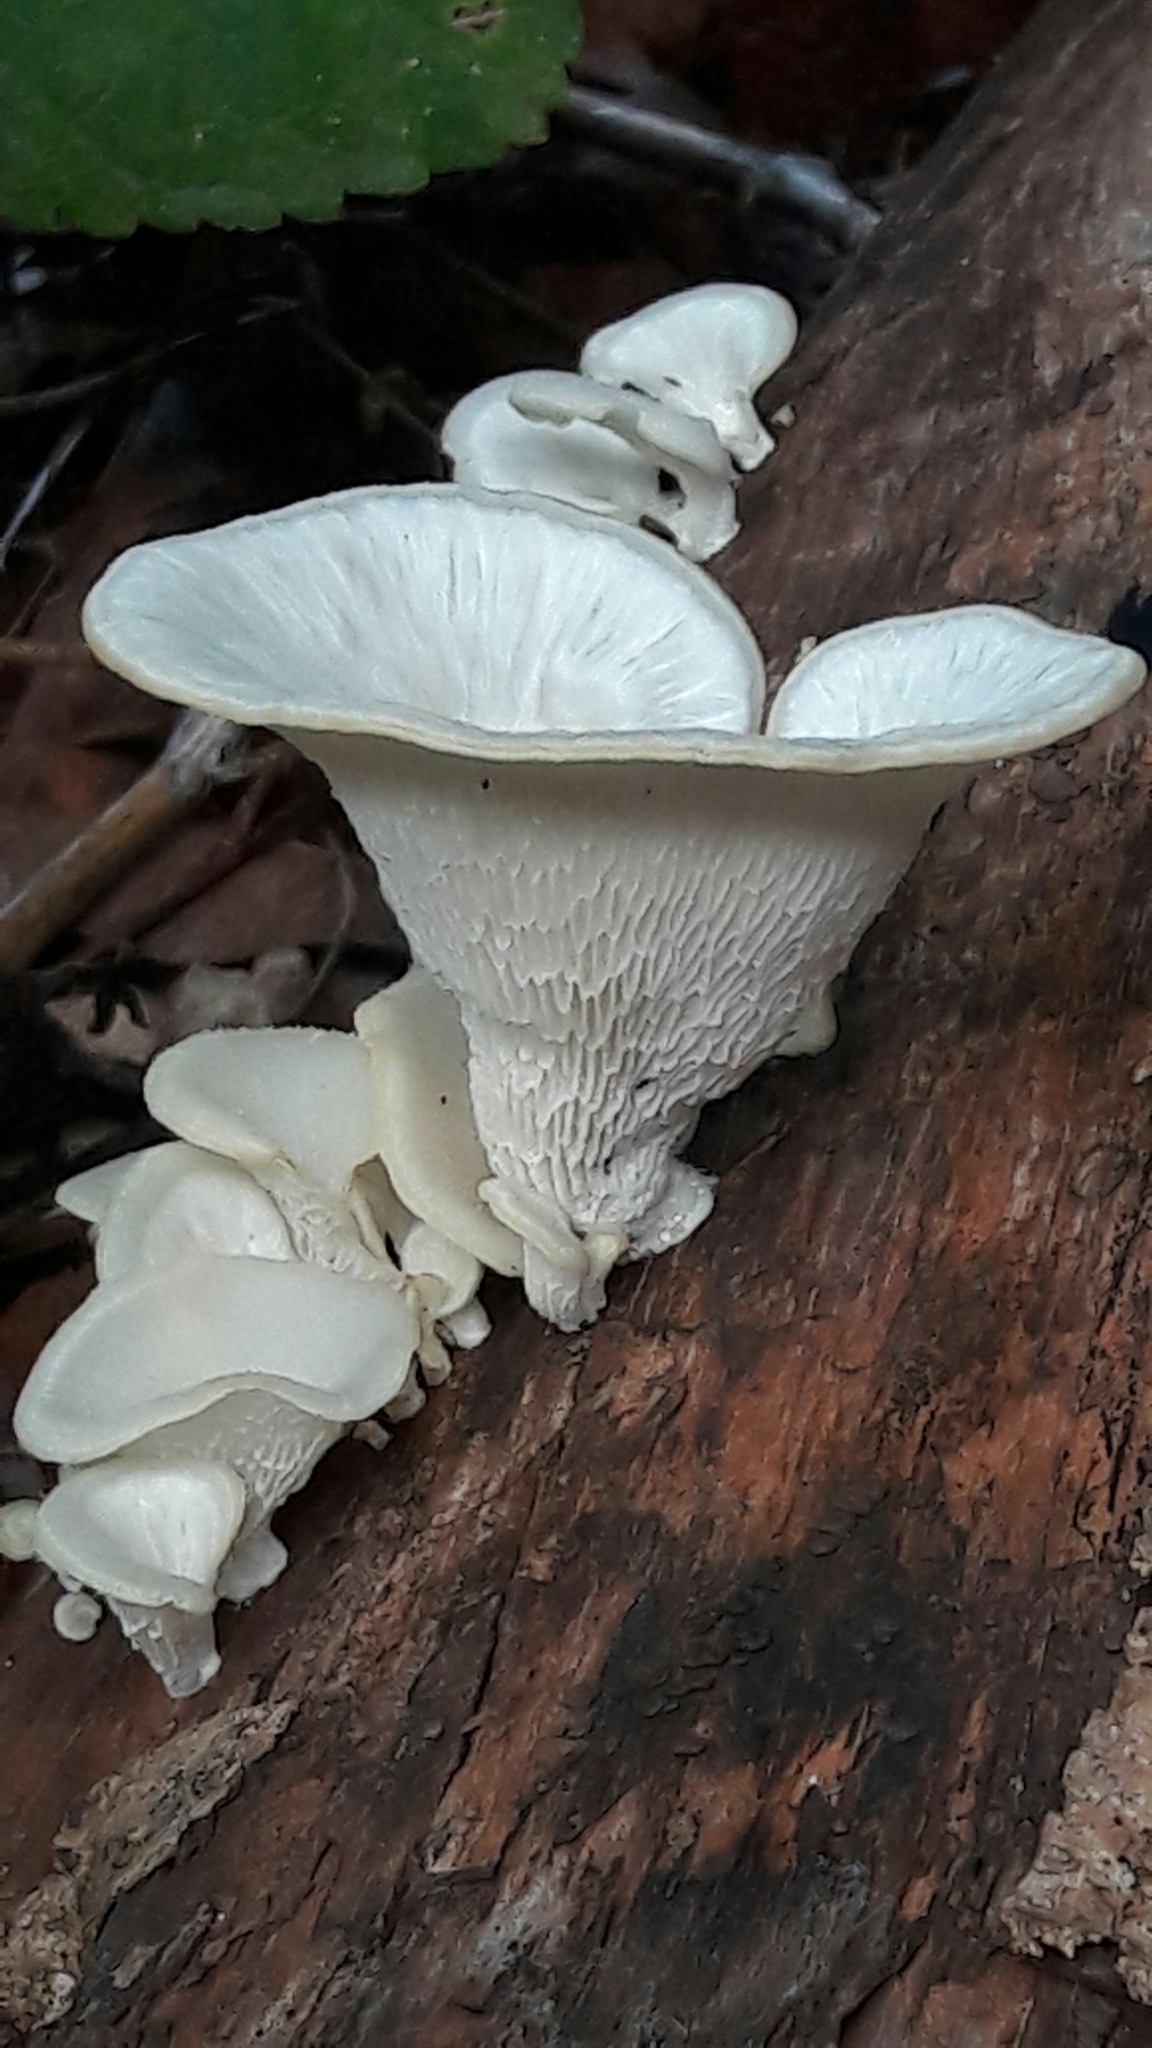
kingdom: Fungi
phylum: Basidiomycota
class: Agaricomycetes
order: Polyporales
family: Polyporaceae
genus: Favolus
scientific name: Favolus tenuiculus
